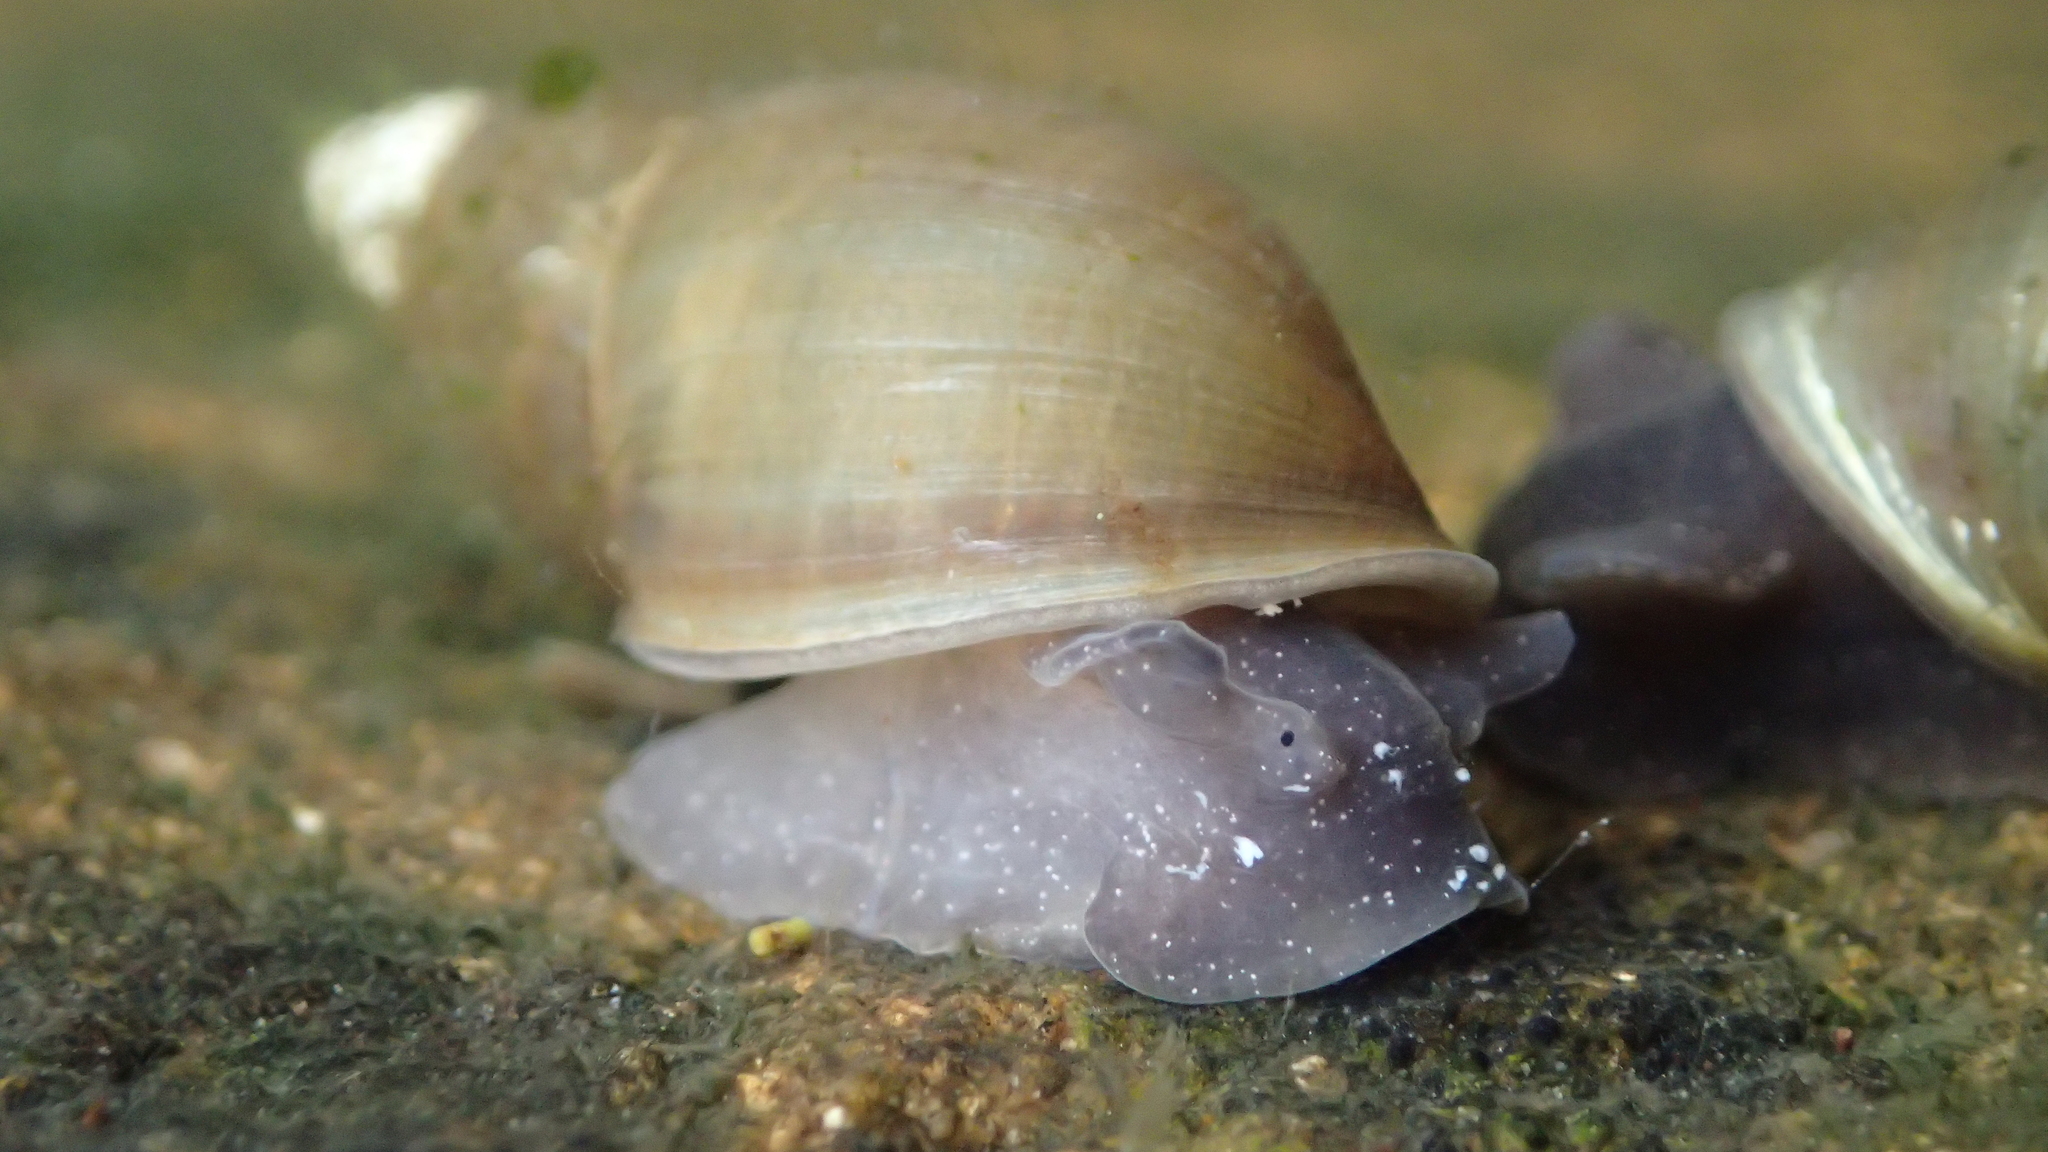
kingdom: Animalia
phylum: Mollusca
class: Gastropoda
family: Lymnaeidae
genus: Lymnaea
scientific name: Lymnaea stagnalis
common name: Great pond snail
